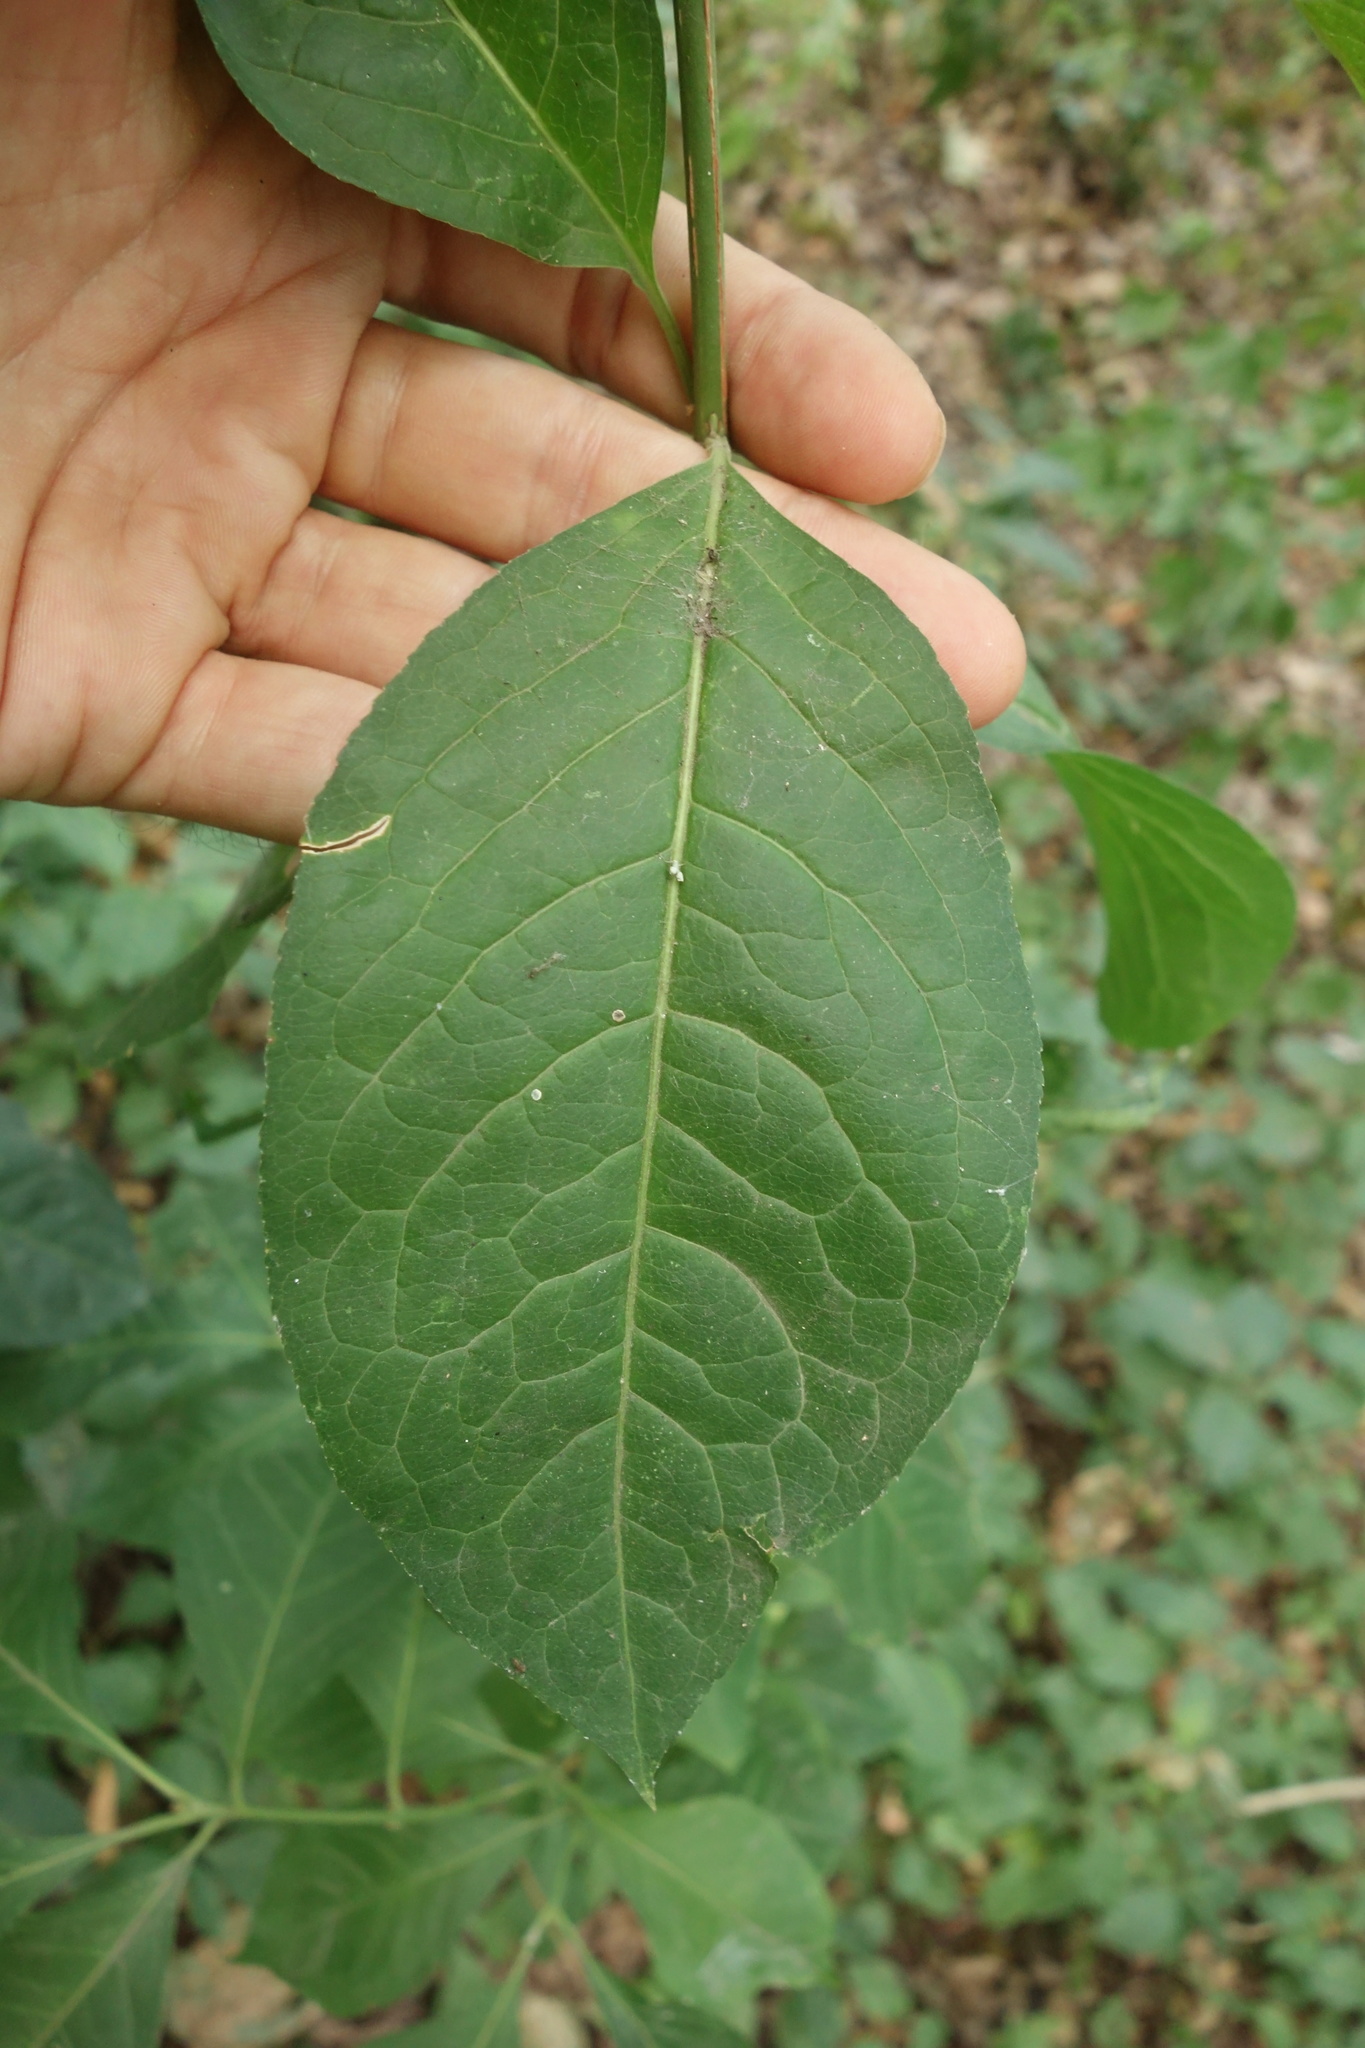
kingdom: Plantae
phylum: Tracheophyta
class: Magnoliopsida
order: Celastrales
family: Celastraceae
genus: Euonymus
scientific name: Euonymus europaeus
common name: Spindle
